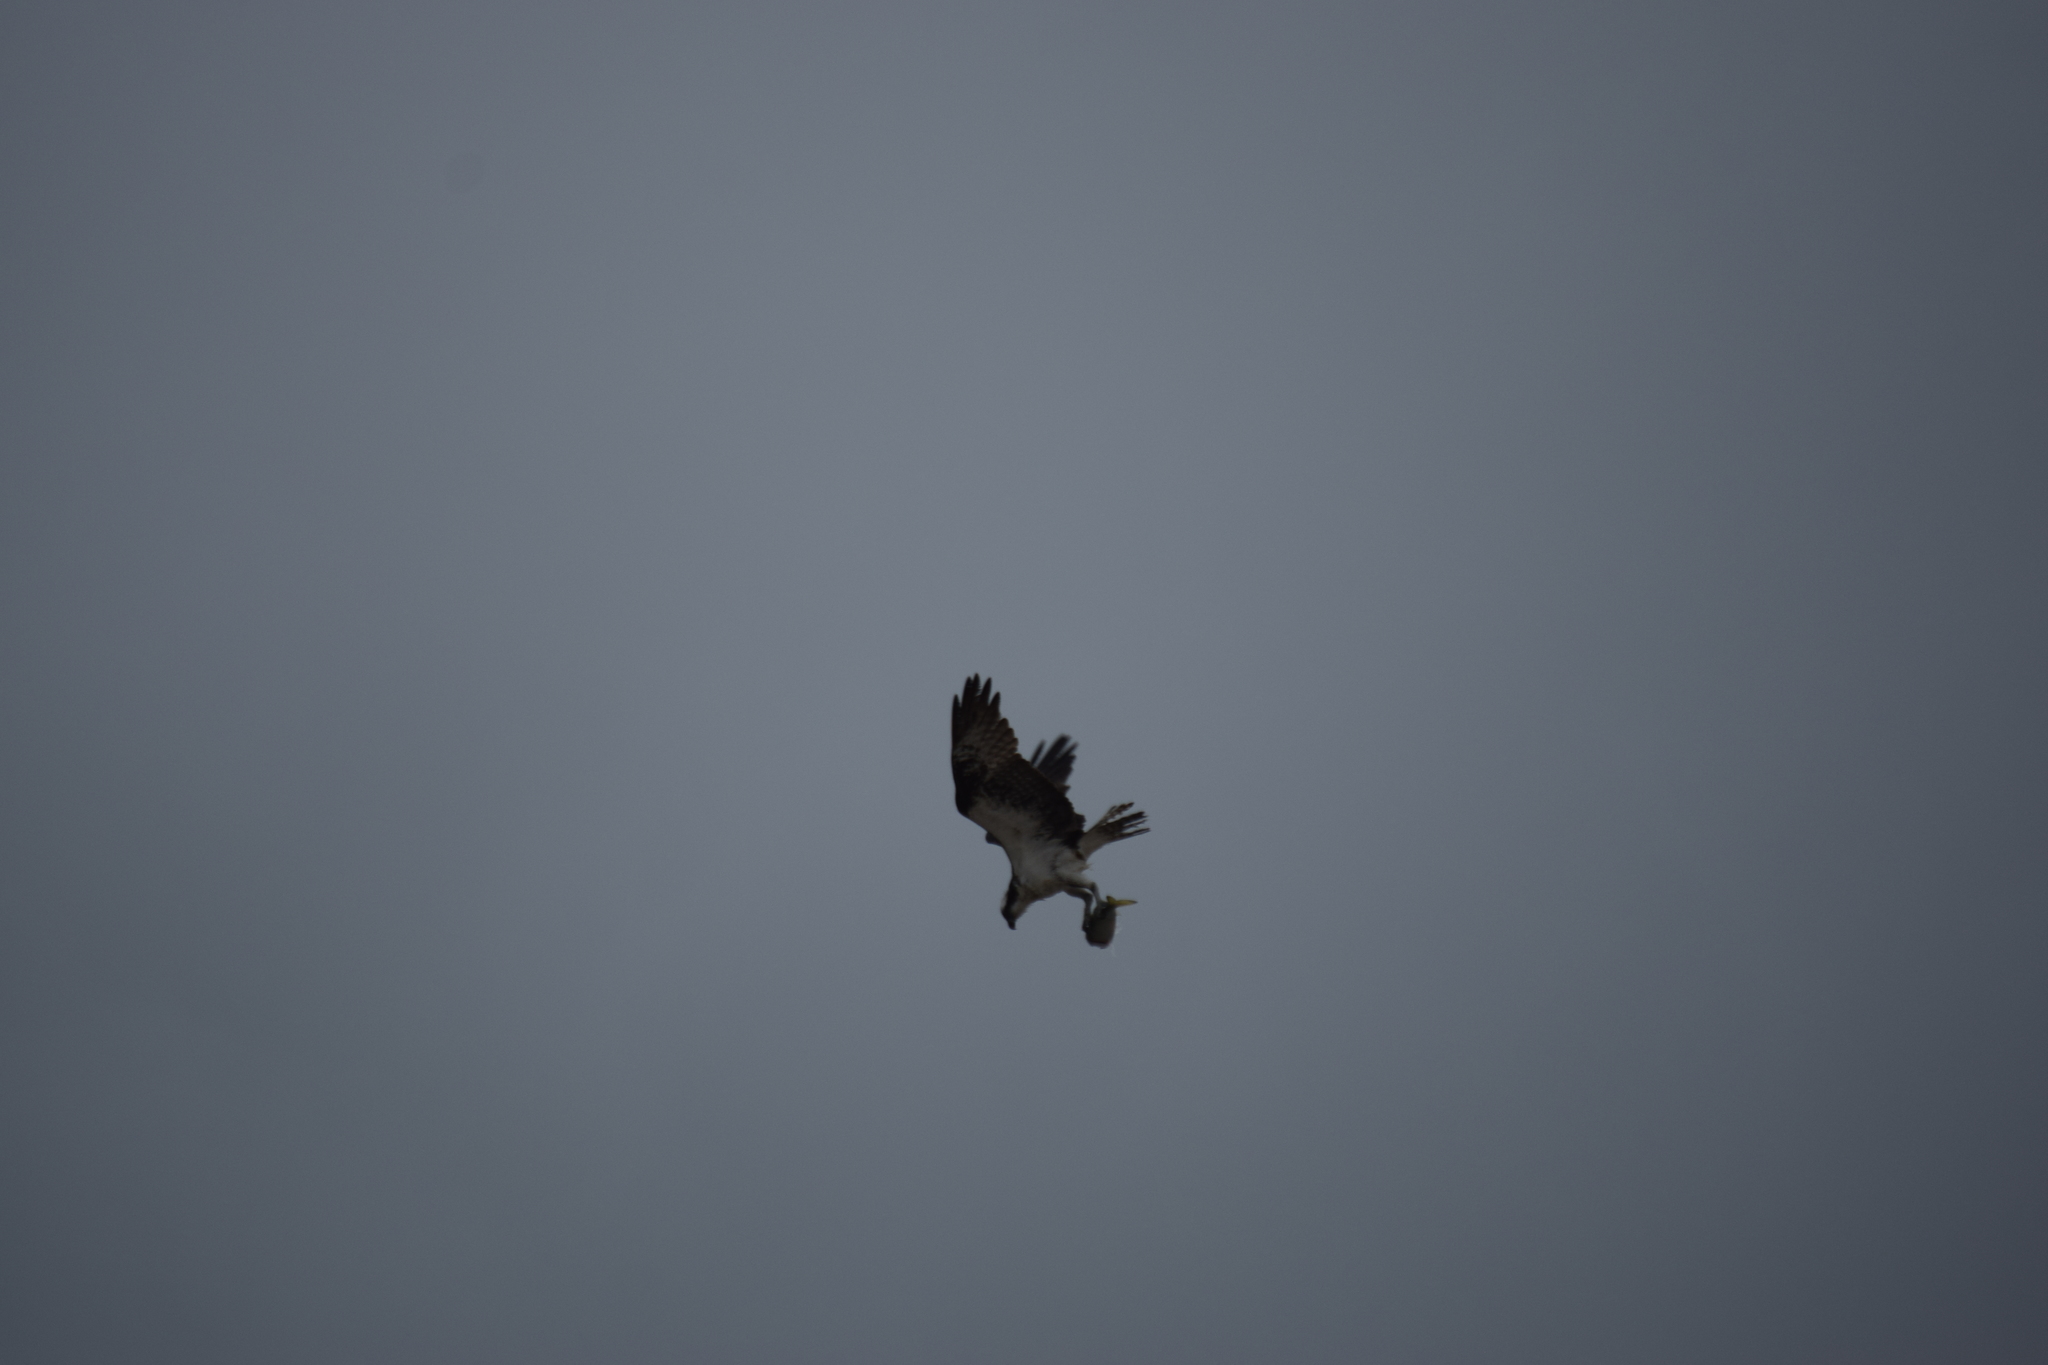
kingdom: Animalia
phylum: Chordata
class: Aves
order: Accipitriformes
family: Pandionidae
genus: Pandion
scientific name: Pandion haliaetus
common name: Osprey
